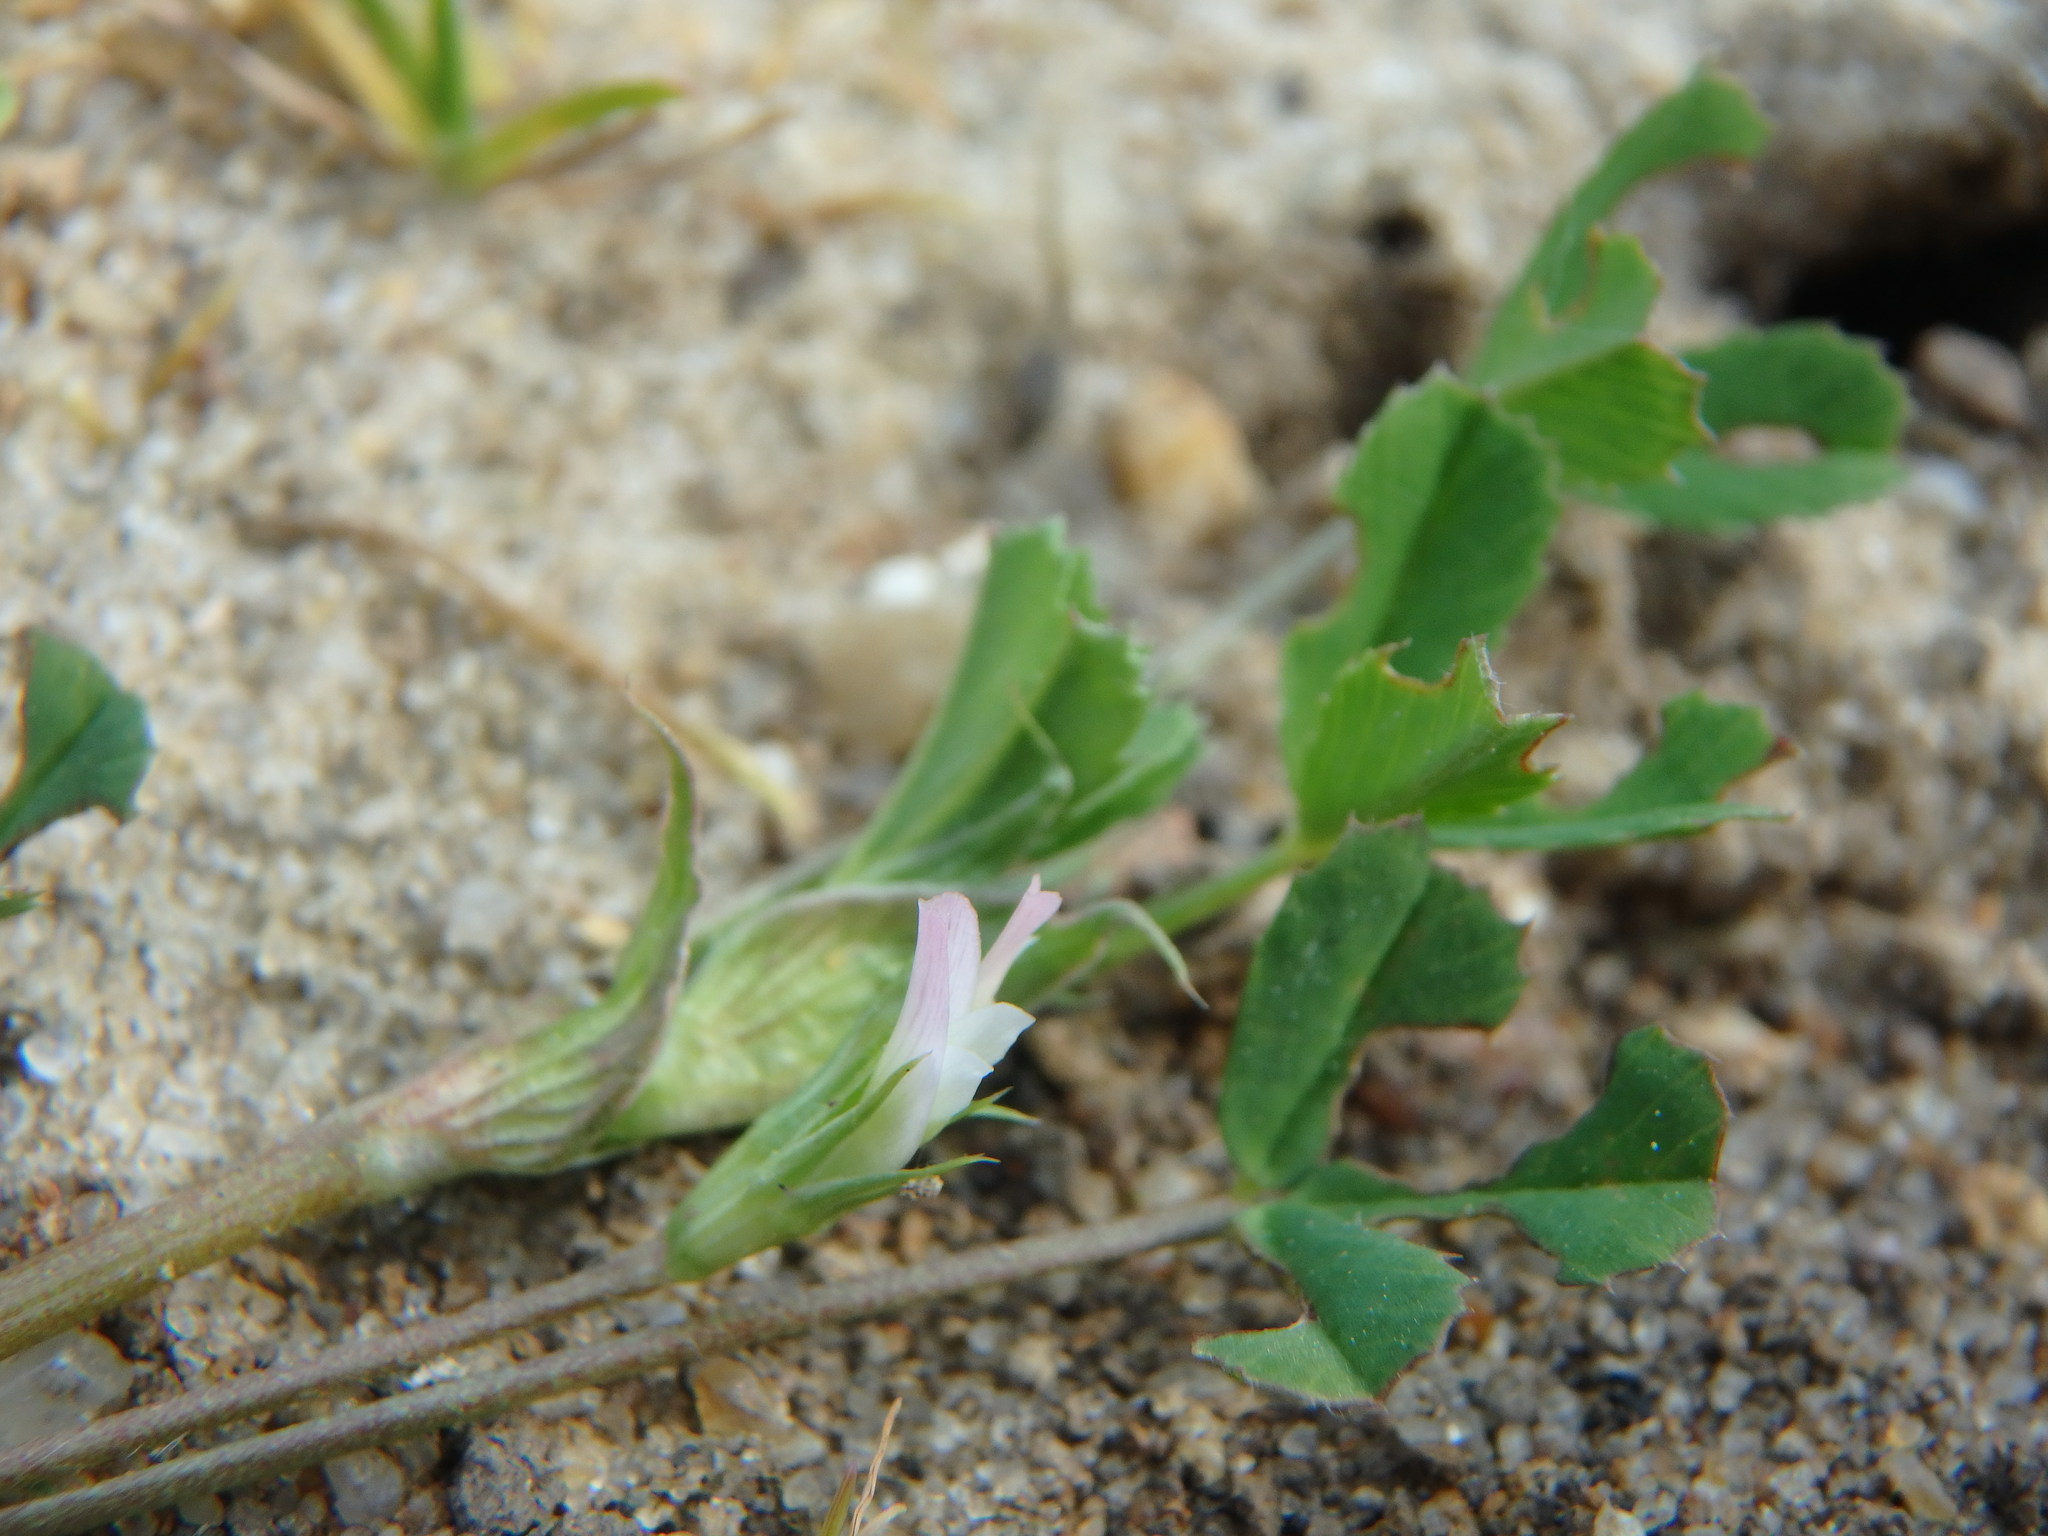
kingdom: Plantae
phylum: Tracheophyta
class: Magnoliopsida
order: Fabales
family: Fabaceae
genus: Trifolium
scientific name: Trifolium ornithopodioides
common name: Bird's-foot clover
